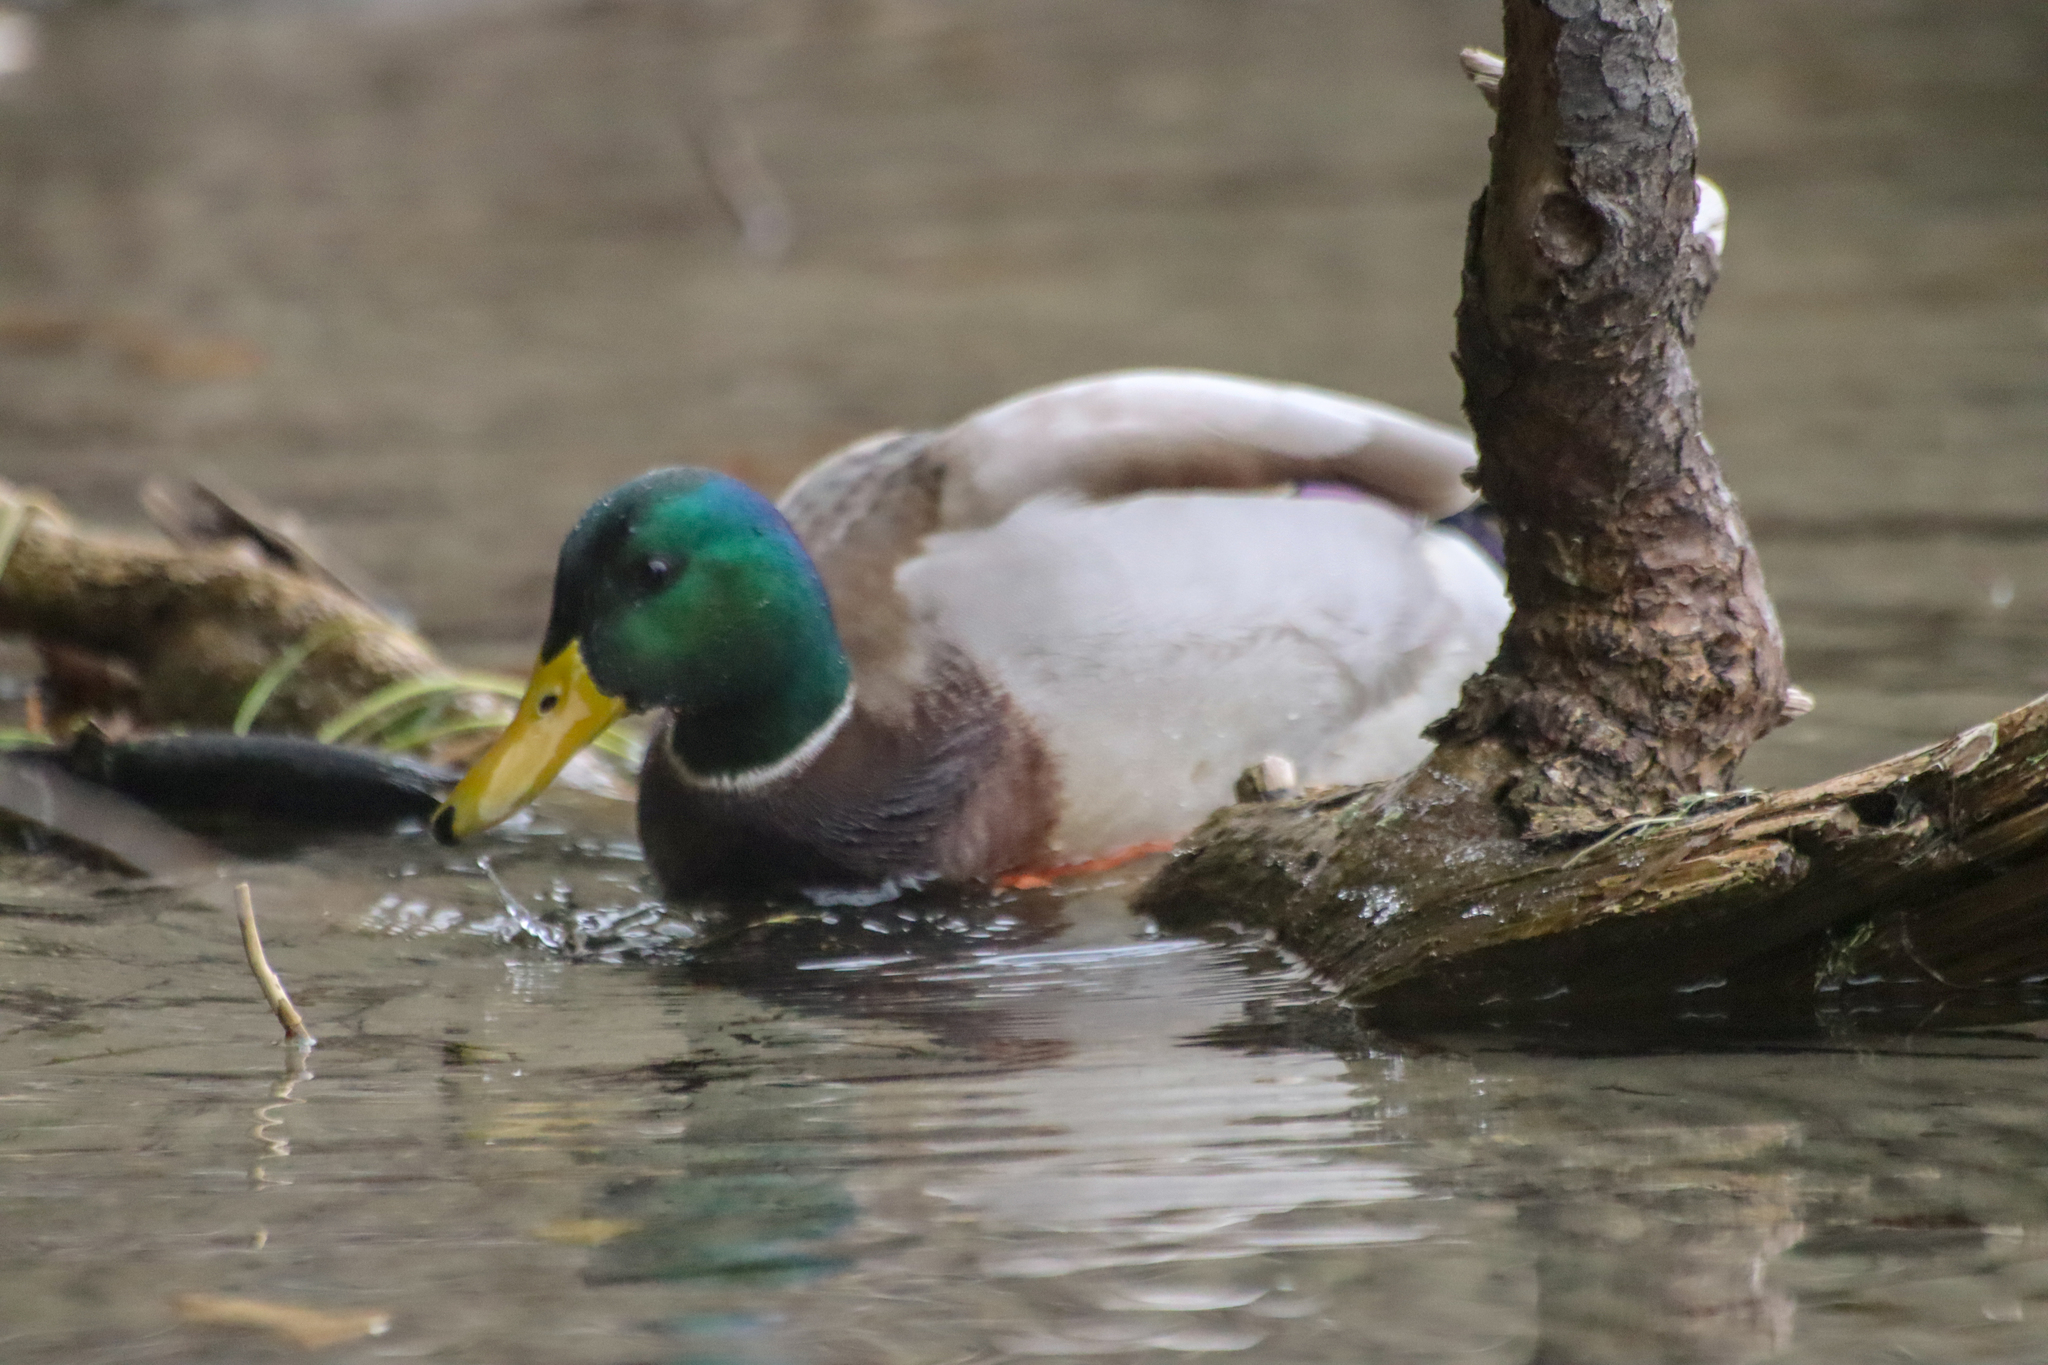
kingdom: Animalia
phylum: Chordata
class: Aves
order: Anseriformes
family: Anatidae
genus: Anas
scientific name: Anas platyrhynchos
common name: Mallard
